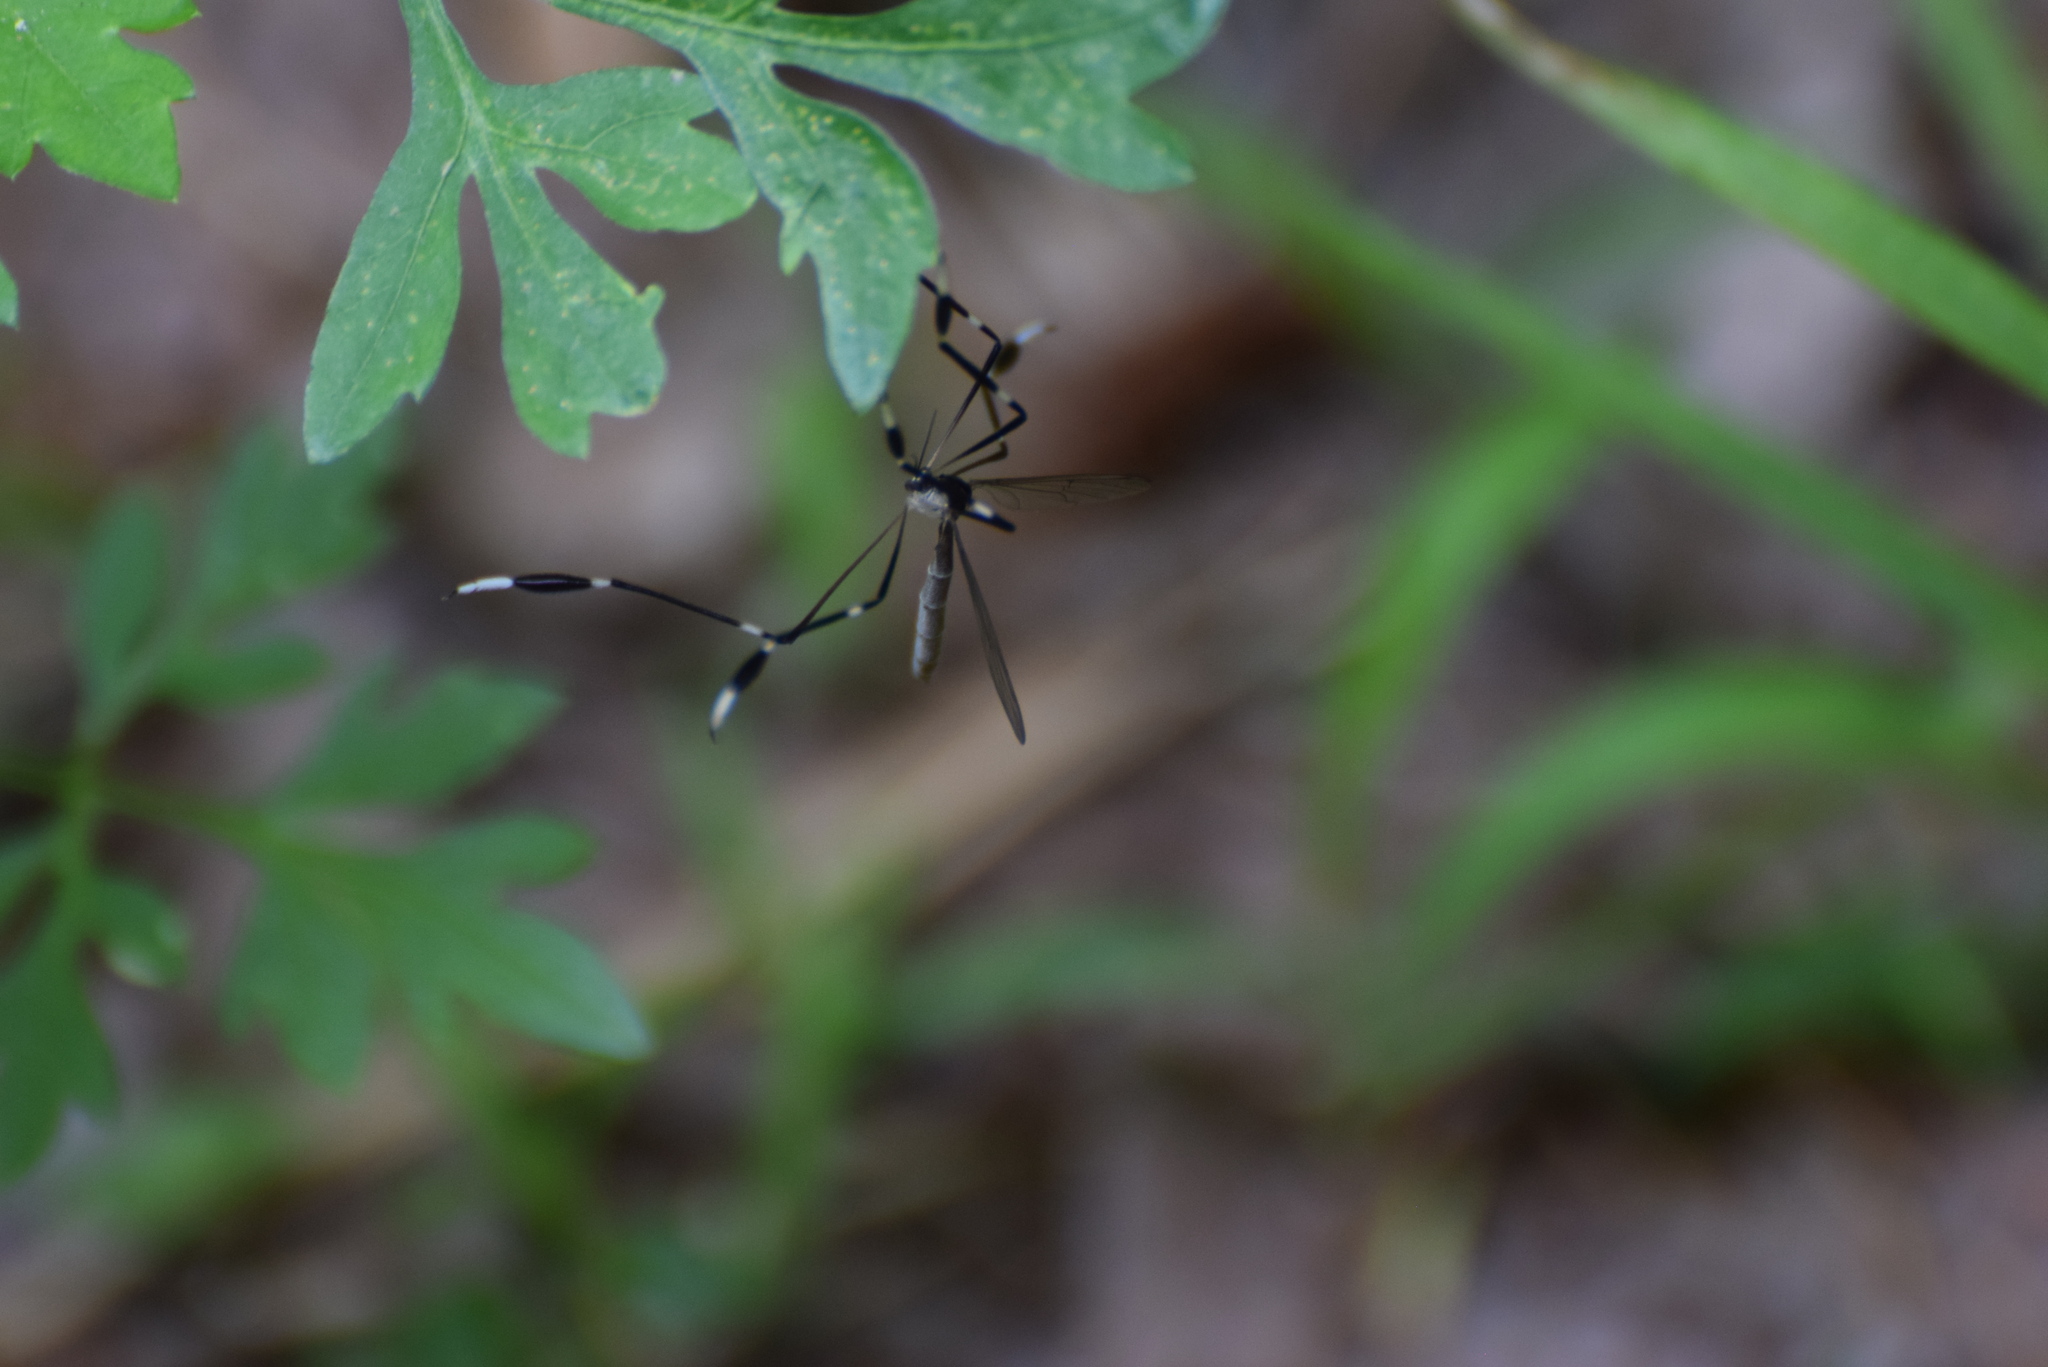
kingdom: Animalia
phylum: Arthropoda
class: Insecta
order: Diptera
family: Ptychopteridae
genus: Bittacomorpha
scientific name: Bittacomorpha clavipes
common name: Eastern phantom crane fly
